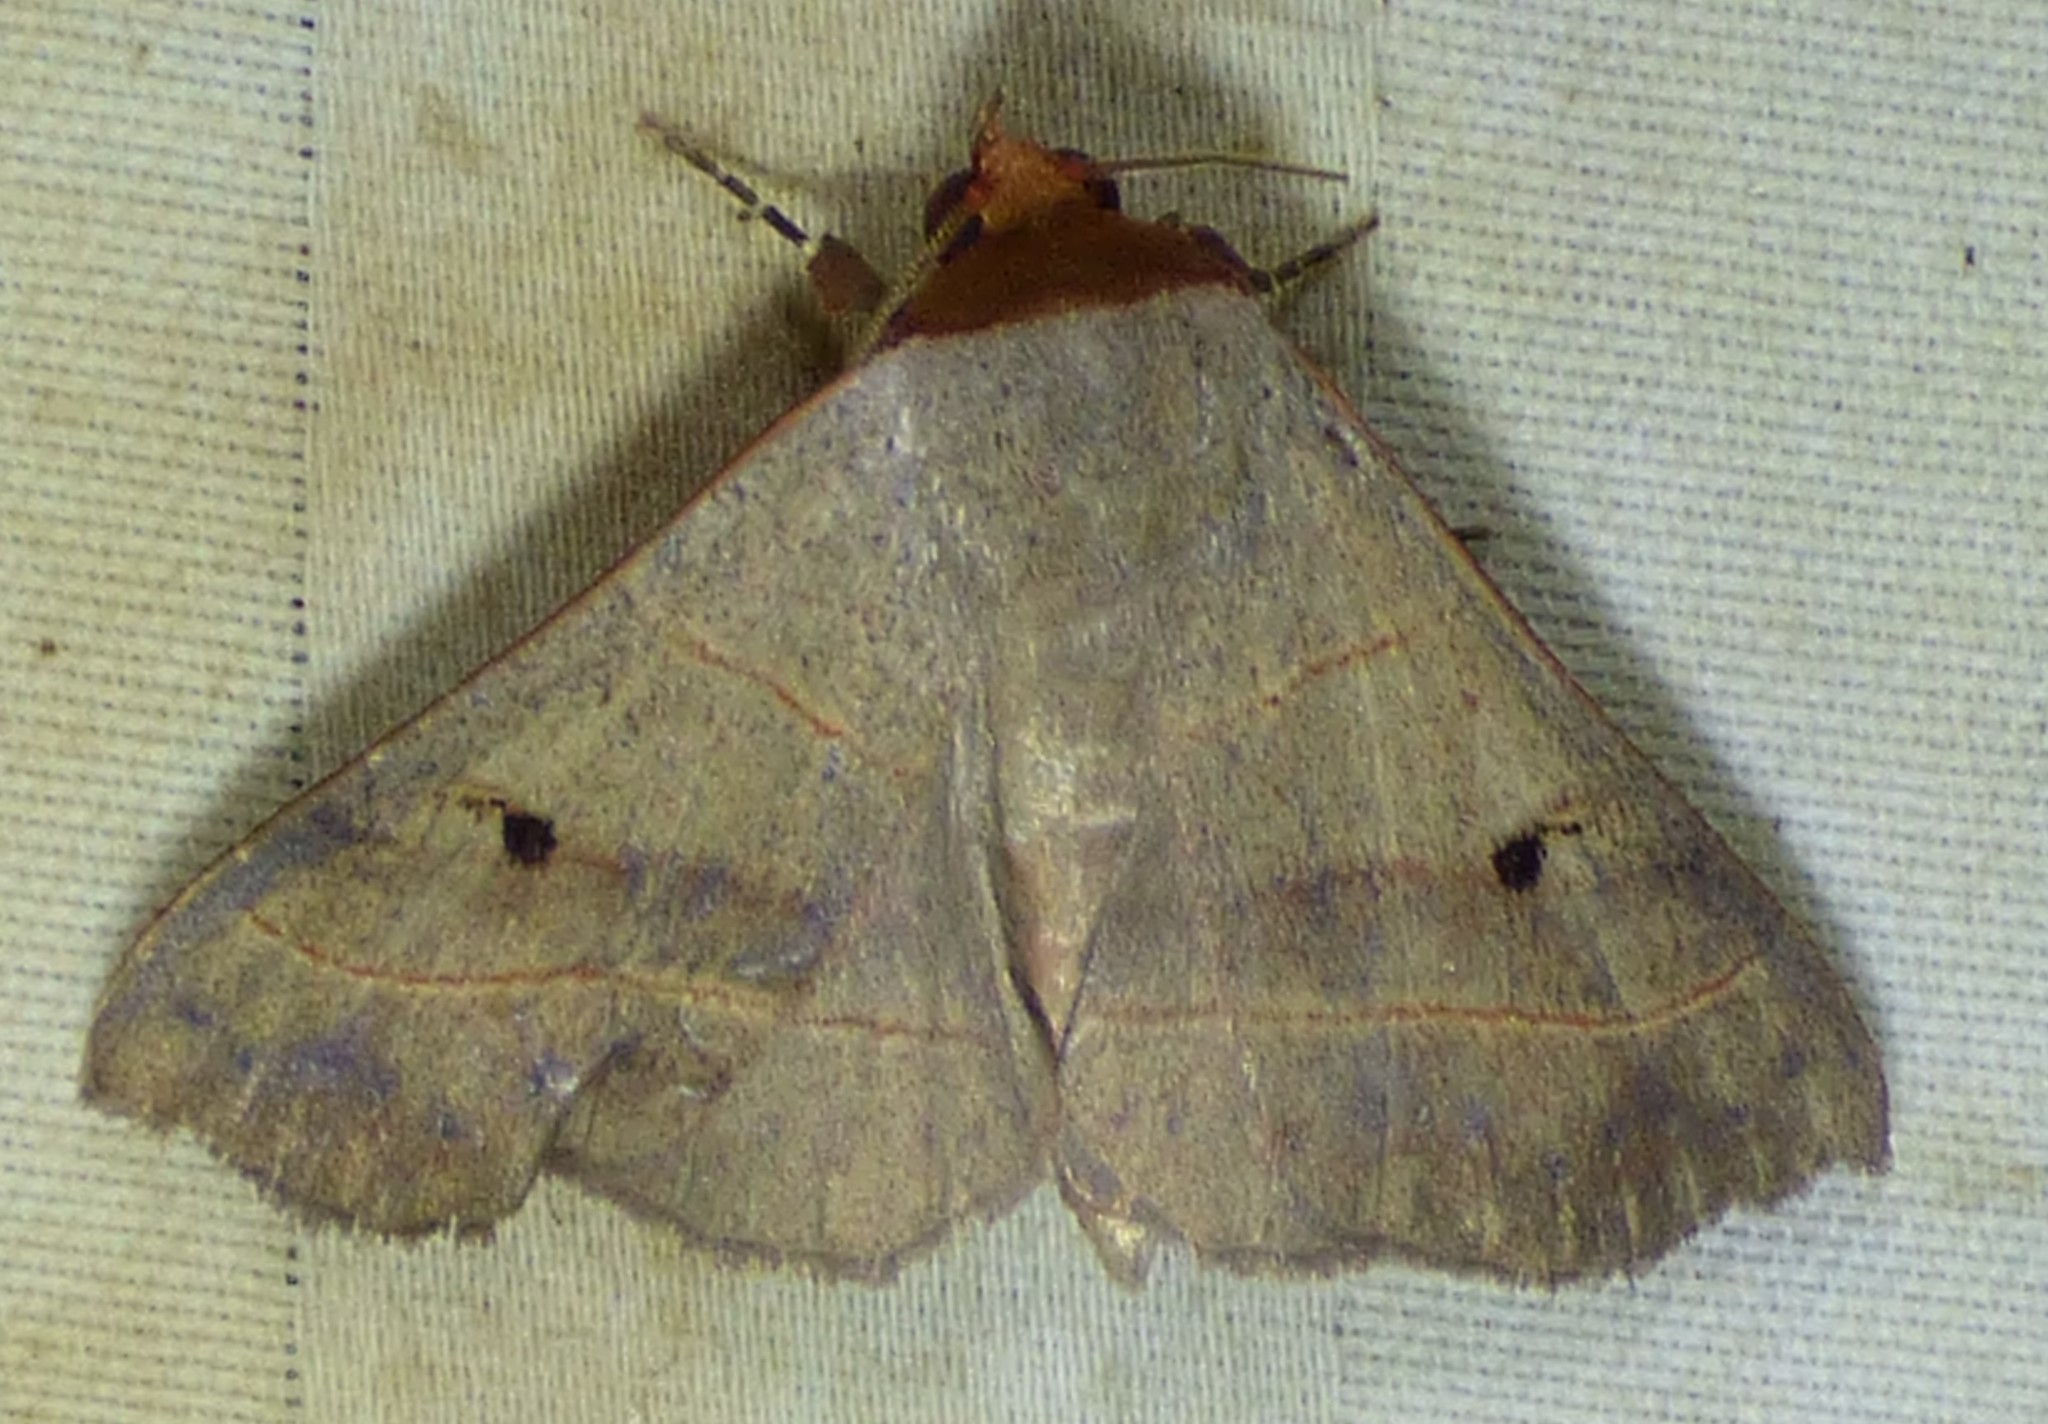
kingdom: Animalia
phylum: Arthropoda
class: Insecta
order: Lepidoptera
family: Erebidae
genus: Panopoda
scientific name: Panopoda rufimargo
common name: Red-lined panopoda moth
